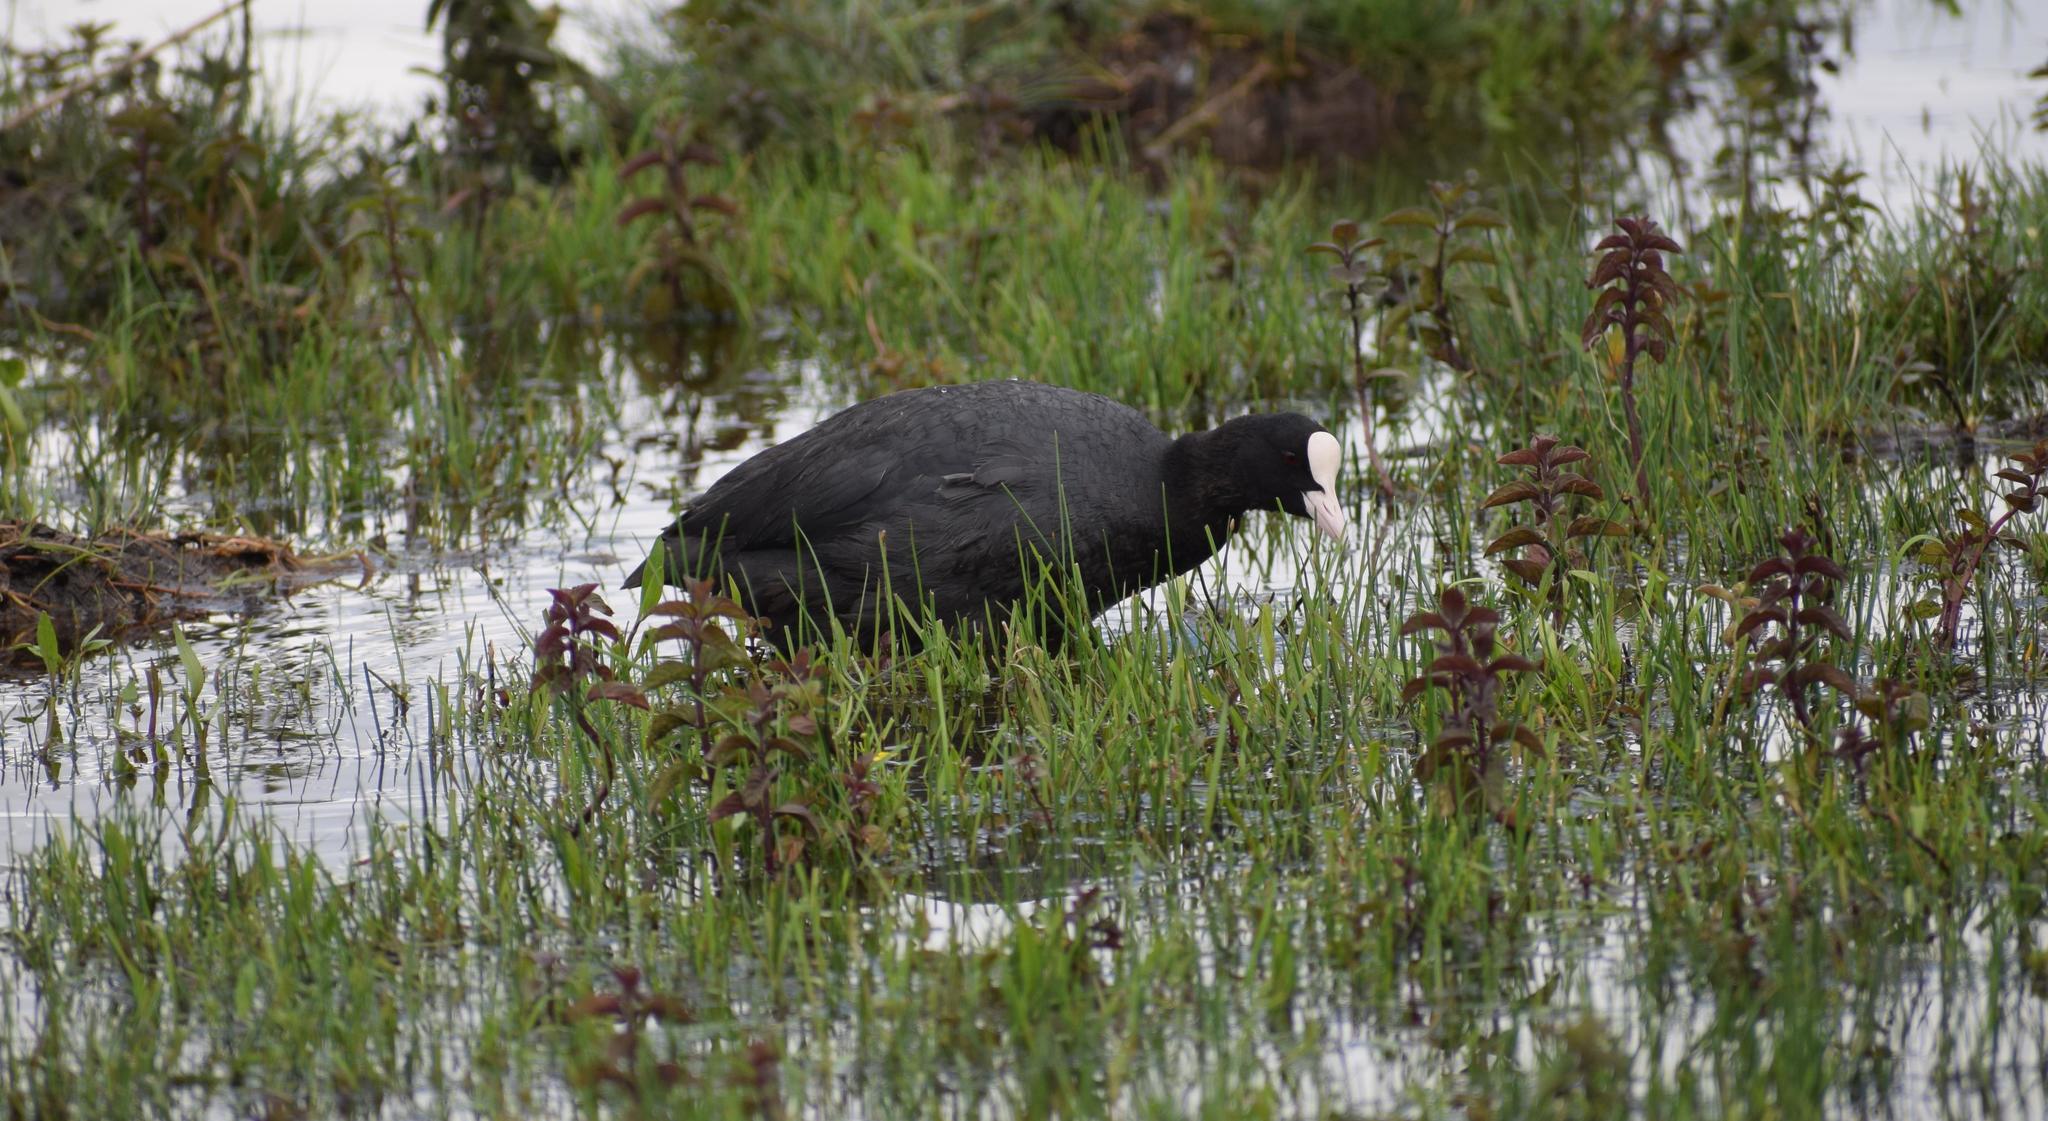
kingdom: Animalia
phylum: Chordata
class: Aves
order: Gruiformes
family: Rallidae
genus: Fulica
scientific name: Fulica atra
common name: Eurasian coot
